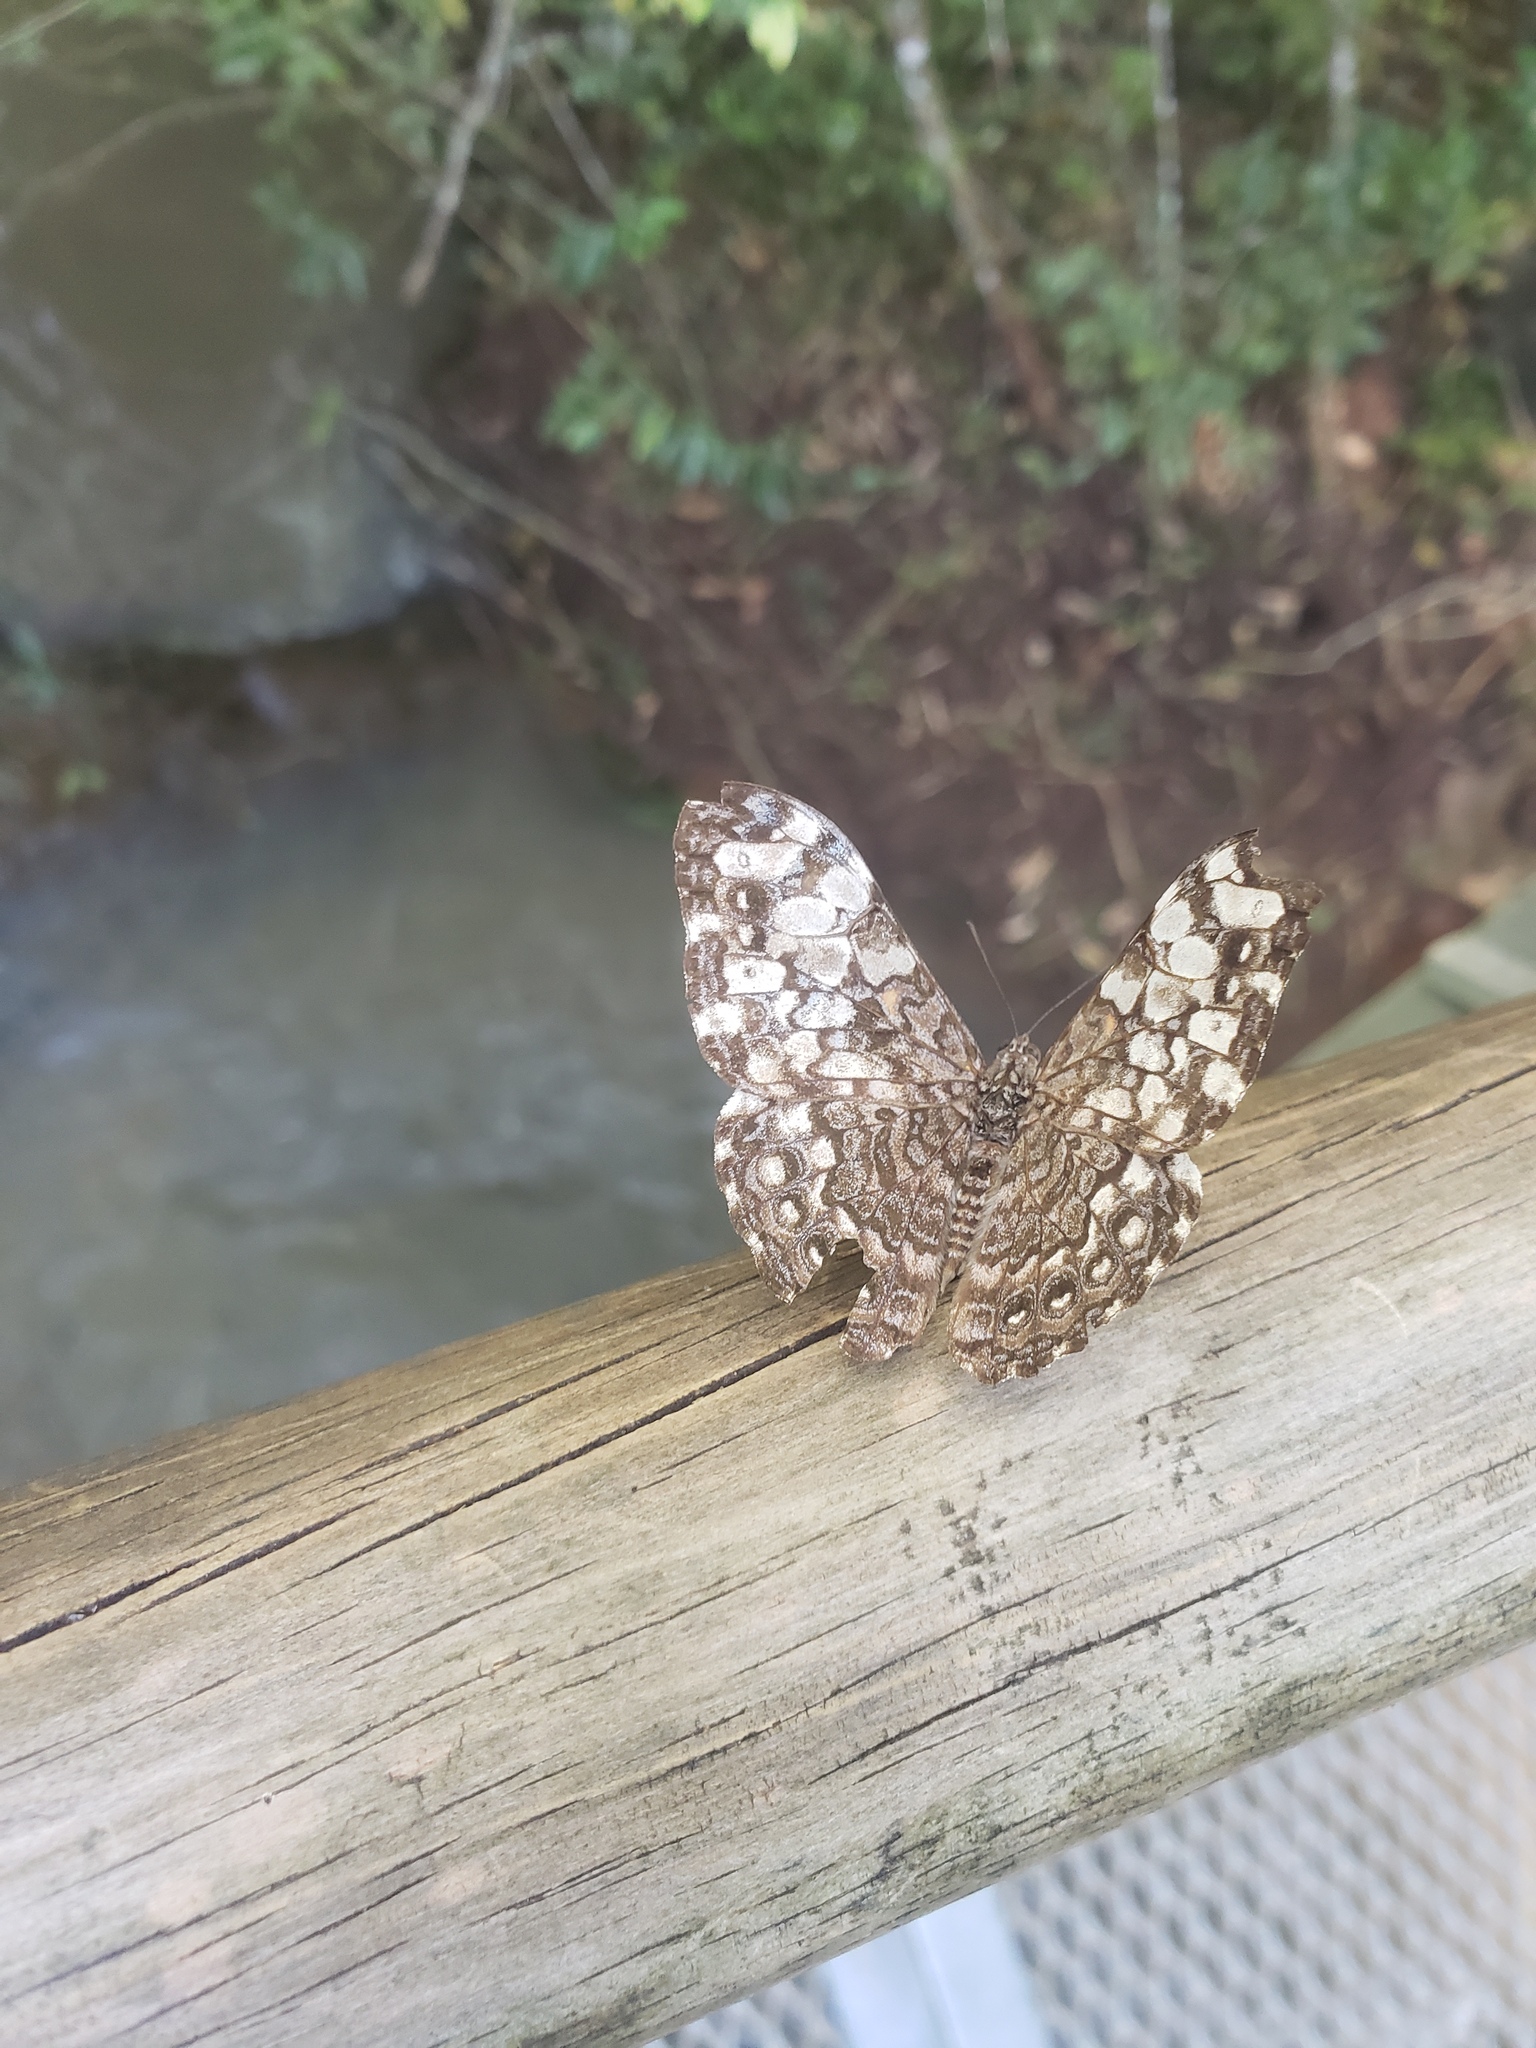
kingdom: Animalia
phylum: Arthropoda
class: Insecta
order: Lepidoptera
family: Nymphalidae
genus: Hamadryas
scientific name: Hamadryas epinome
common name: Epinome cracker
